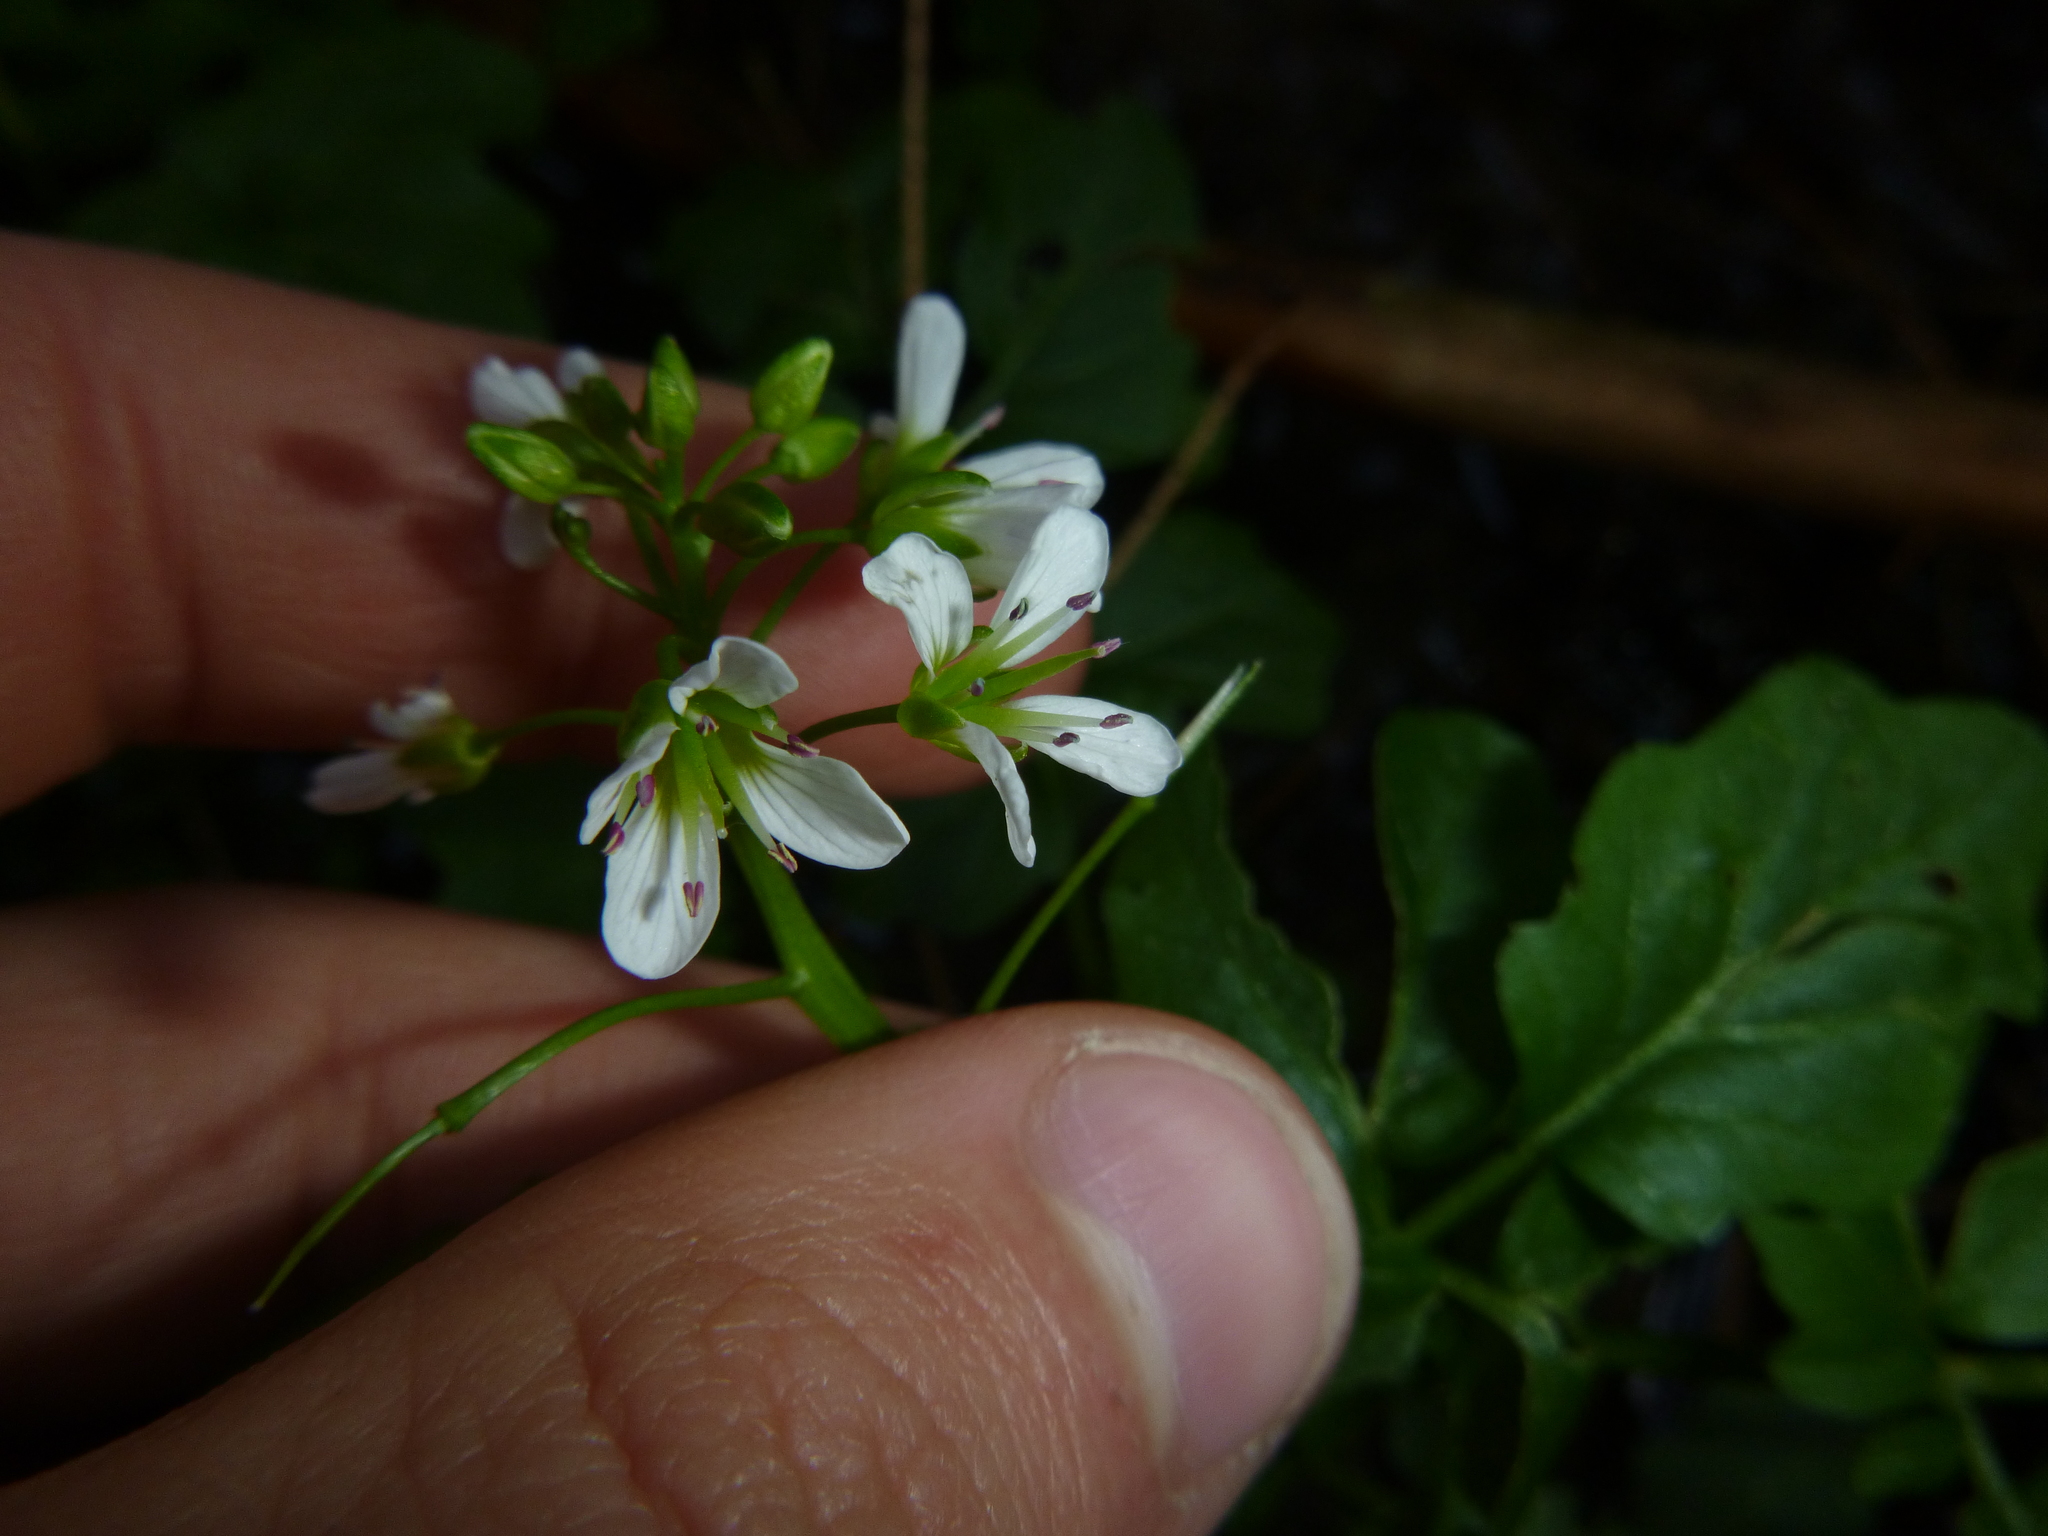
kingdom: Plantae
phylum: Tracheophyta
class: Magnoliopsida
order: Brassicales
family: Brassicaceae
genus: Cardamine
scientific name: Cardamine amara
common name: Large bitter-cress
